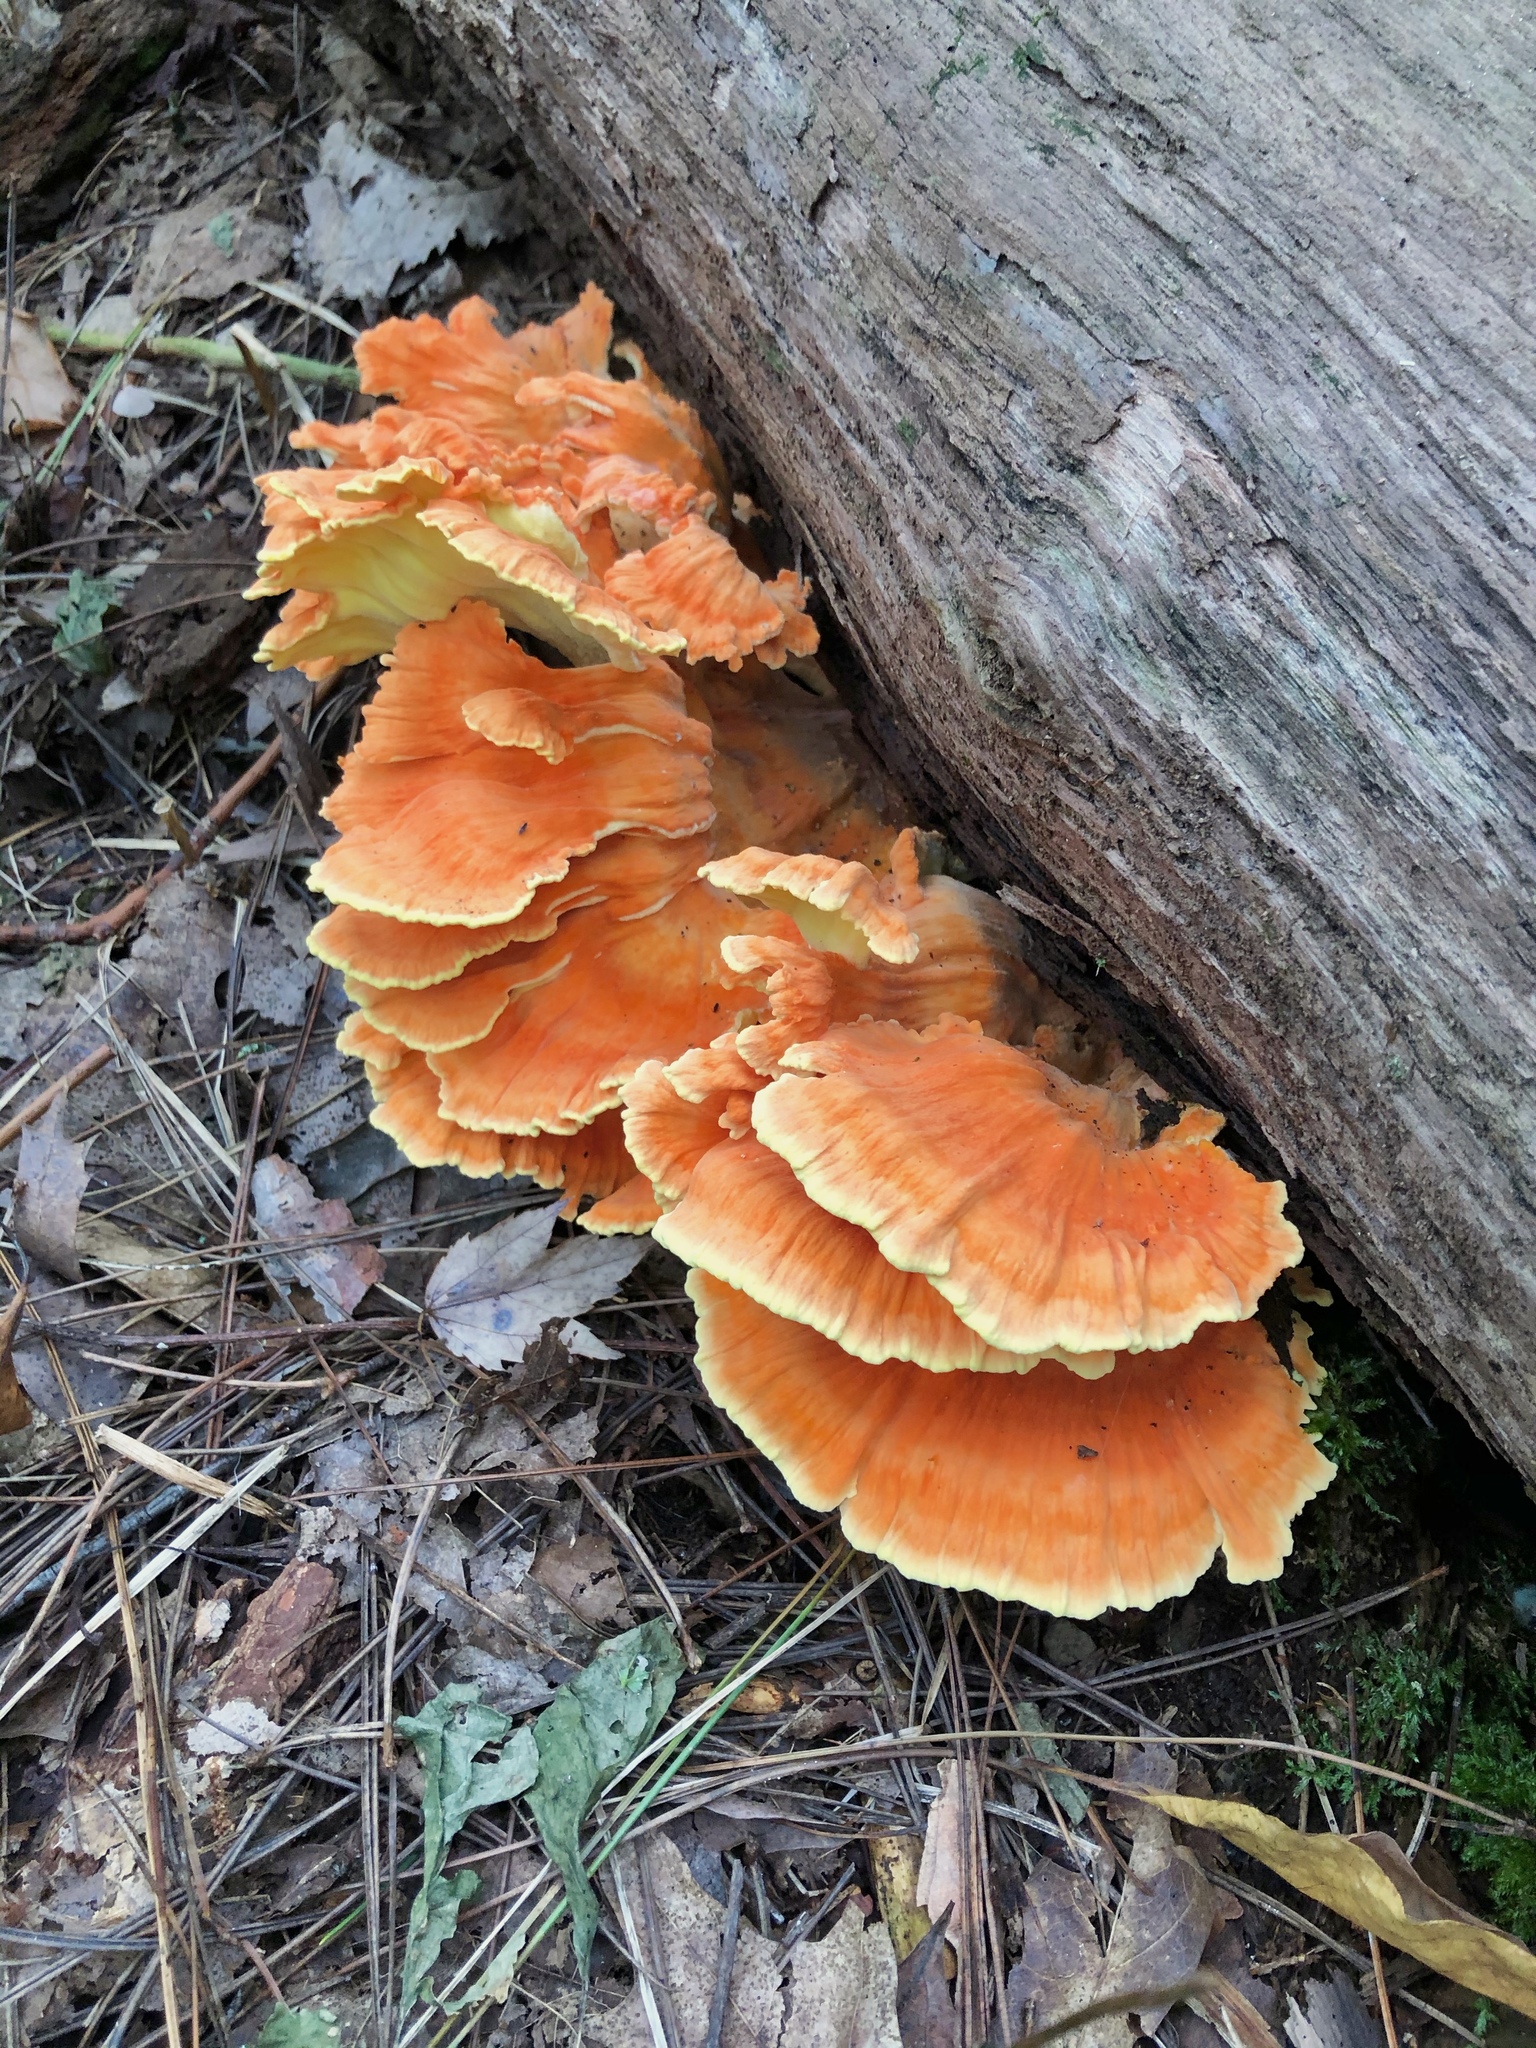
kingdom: Fungi
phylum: Basidiomycota
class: Agaricomycetes
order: Polyporales
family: Laetiporaceae
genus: Laetiporus
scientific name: Laetiporus sulphureus
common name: Chicken of the woods
